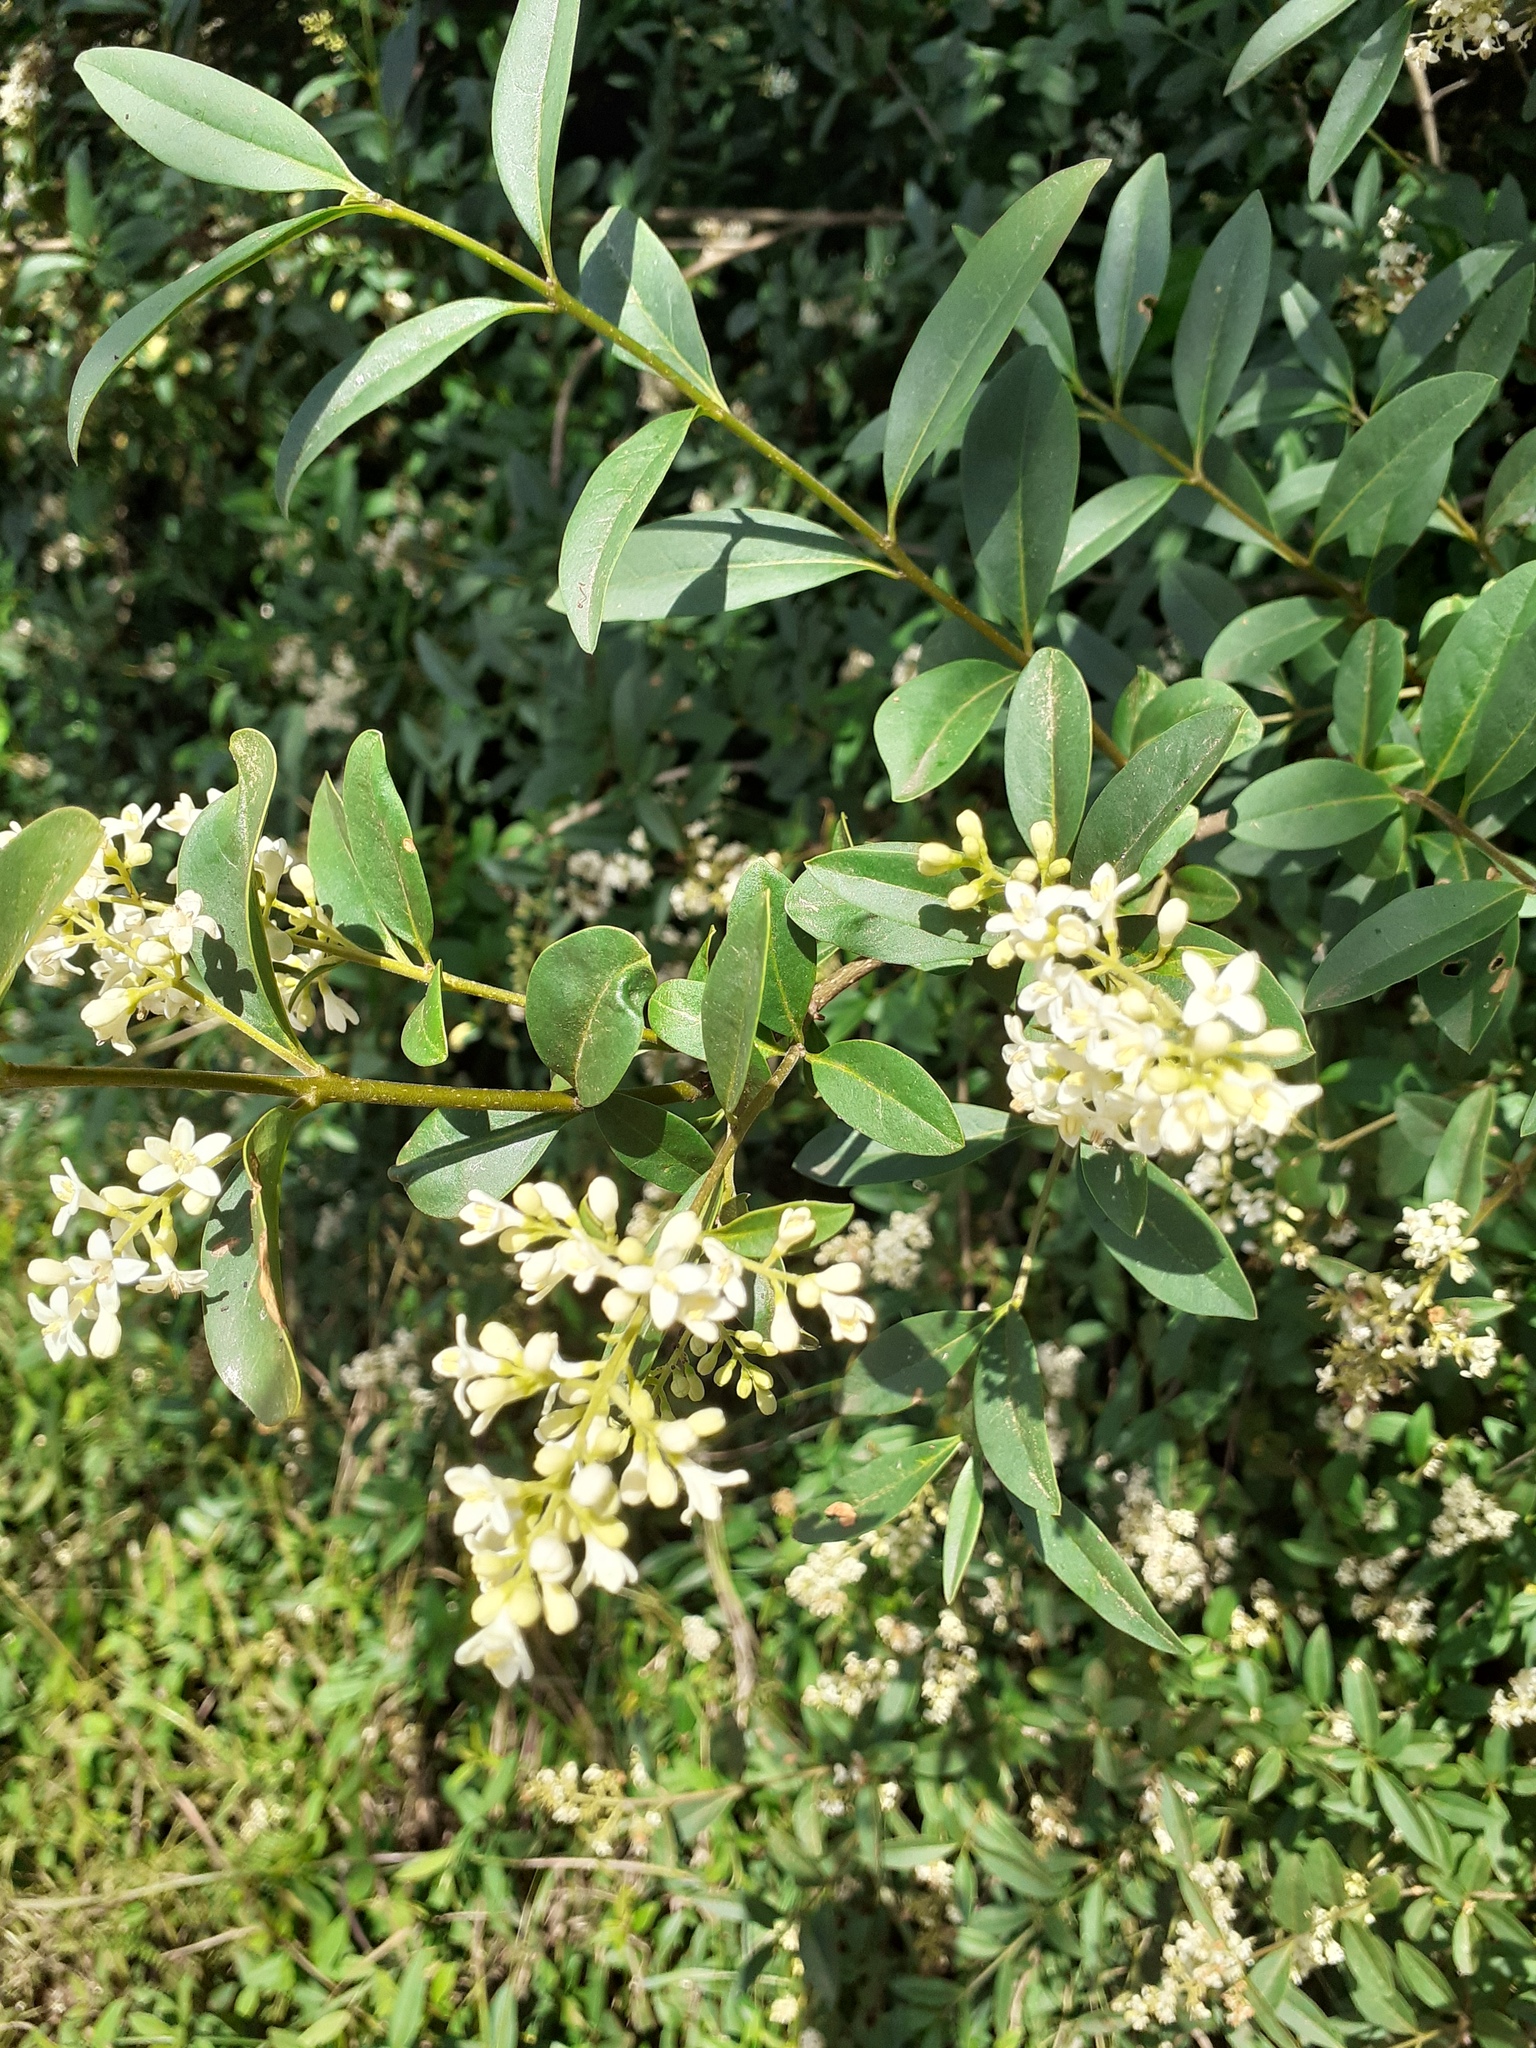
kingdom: Plantae
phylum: Tracheophyta
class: Magnoliopsida
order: Lamiales
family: Oleaceae
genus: Ligustrum
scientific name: Ligustrum vulgare
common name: Wild privet
